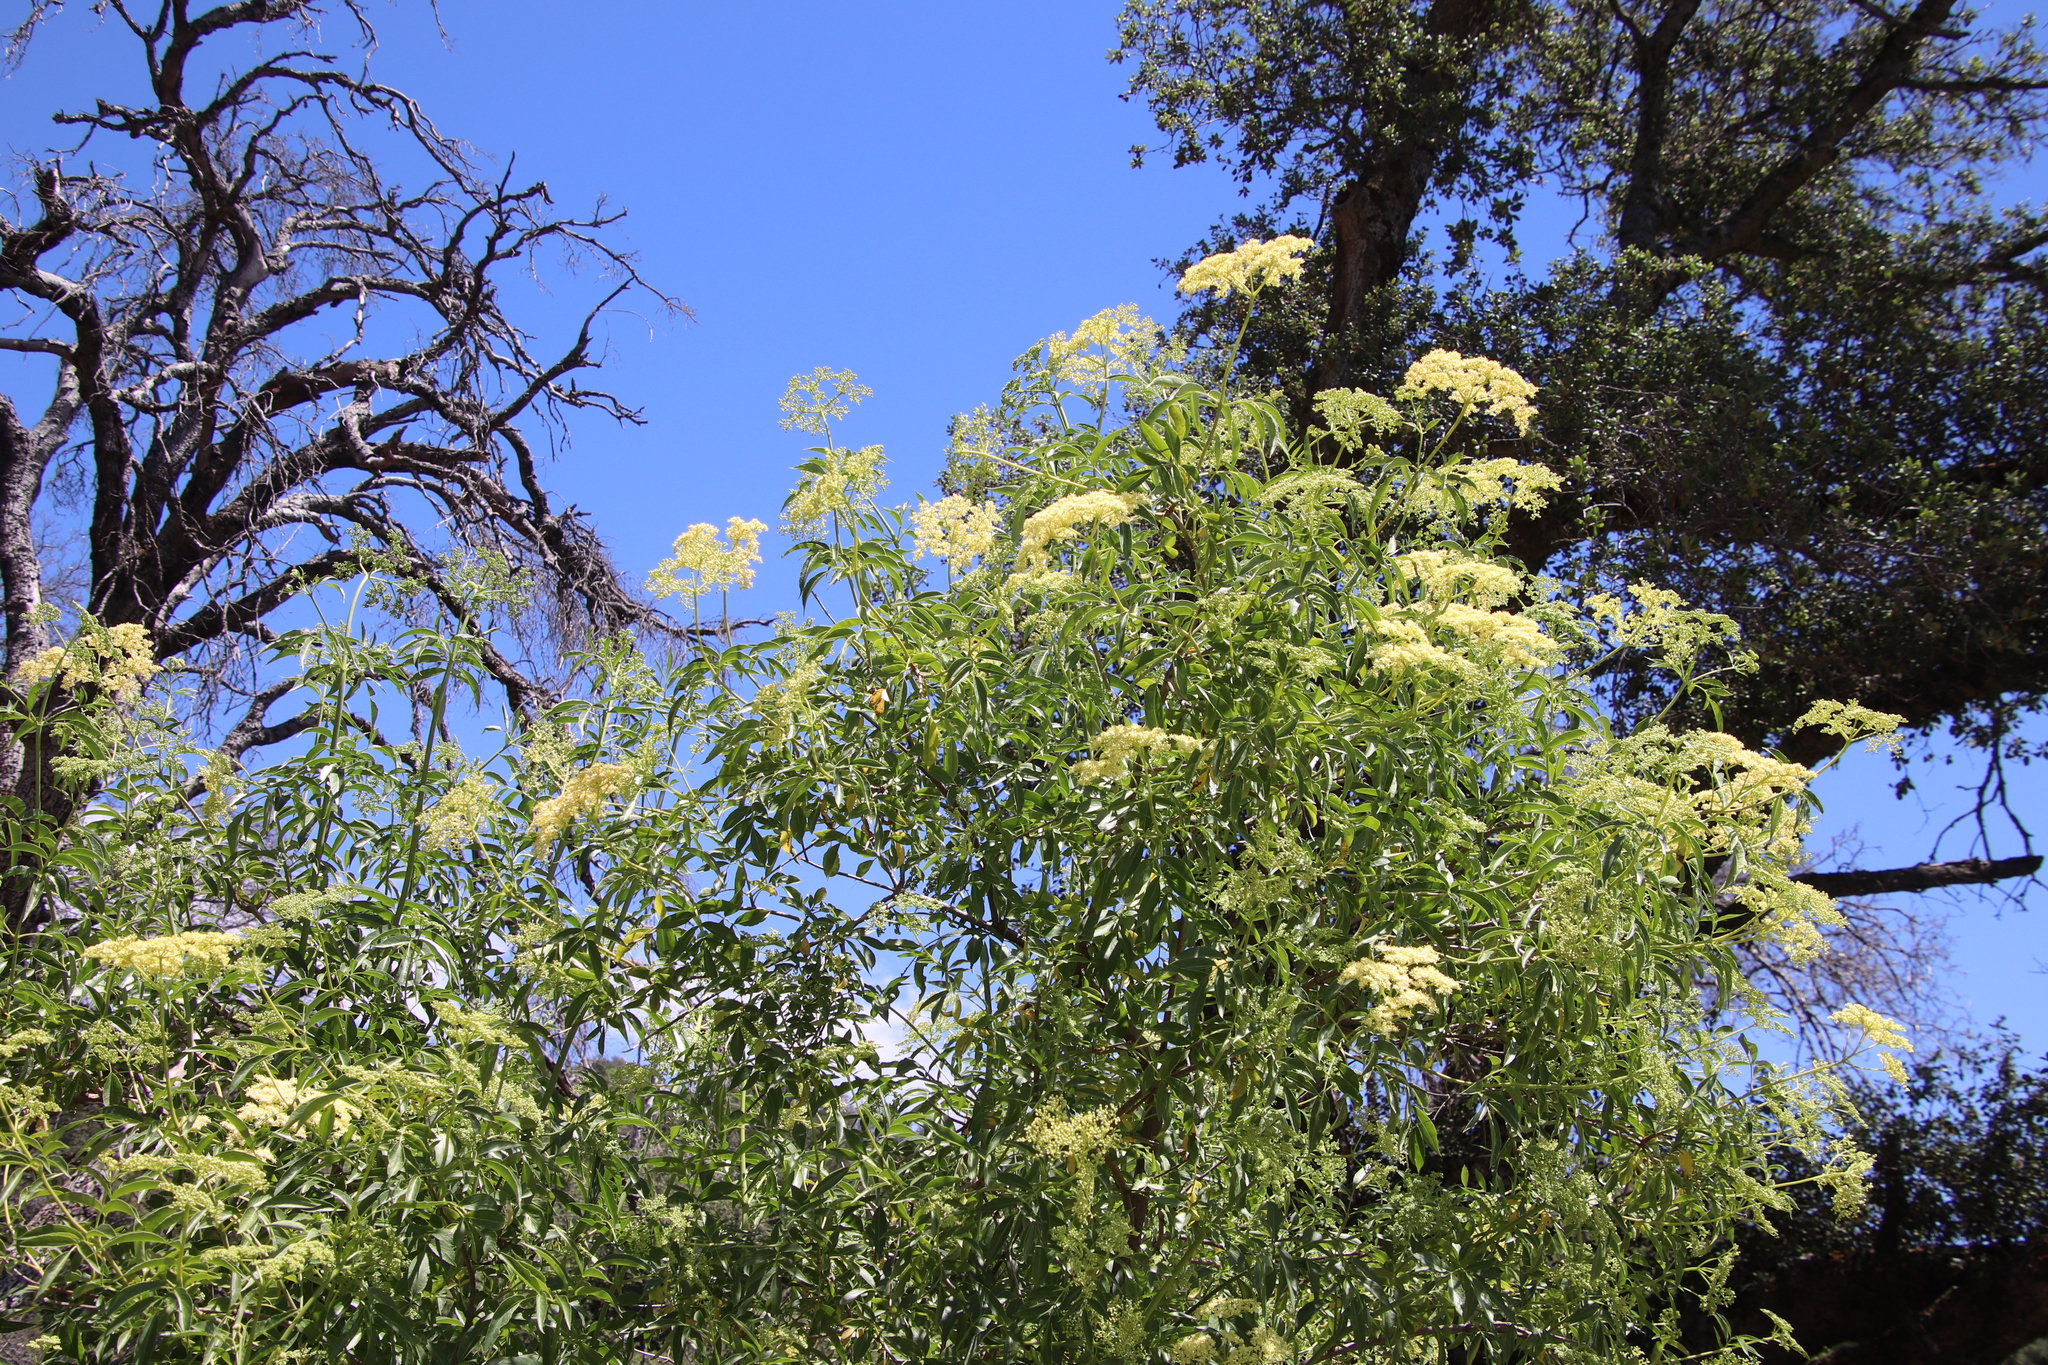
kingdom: Plantae
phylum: Tracheophyta
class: Magnoliopsida
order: Dipsacales
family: Viburnaceae
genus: Sambucus
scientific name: Sambucus cerulea
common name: Blue elder
